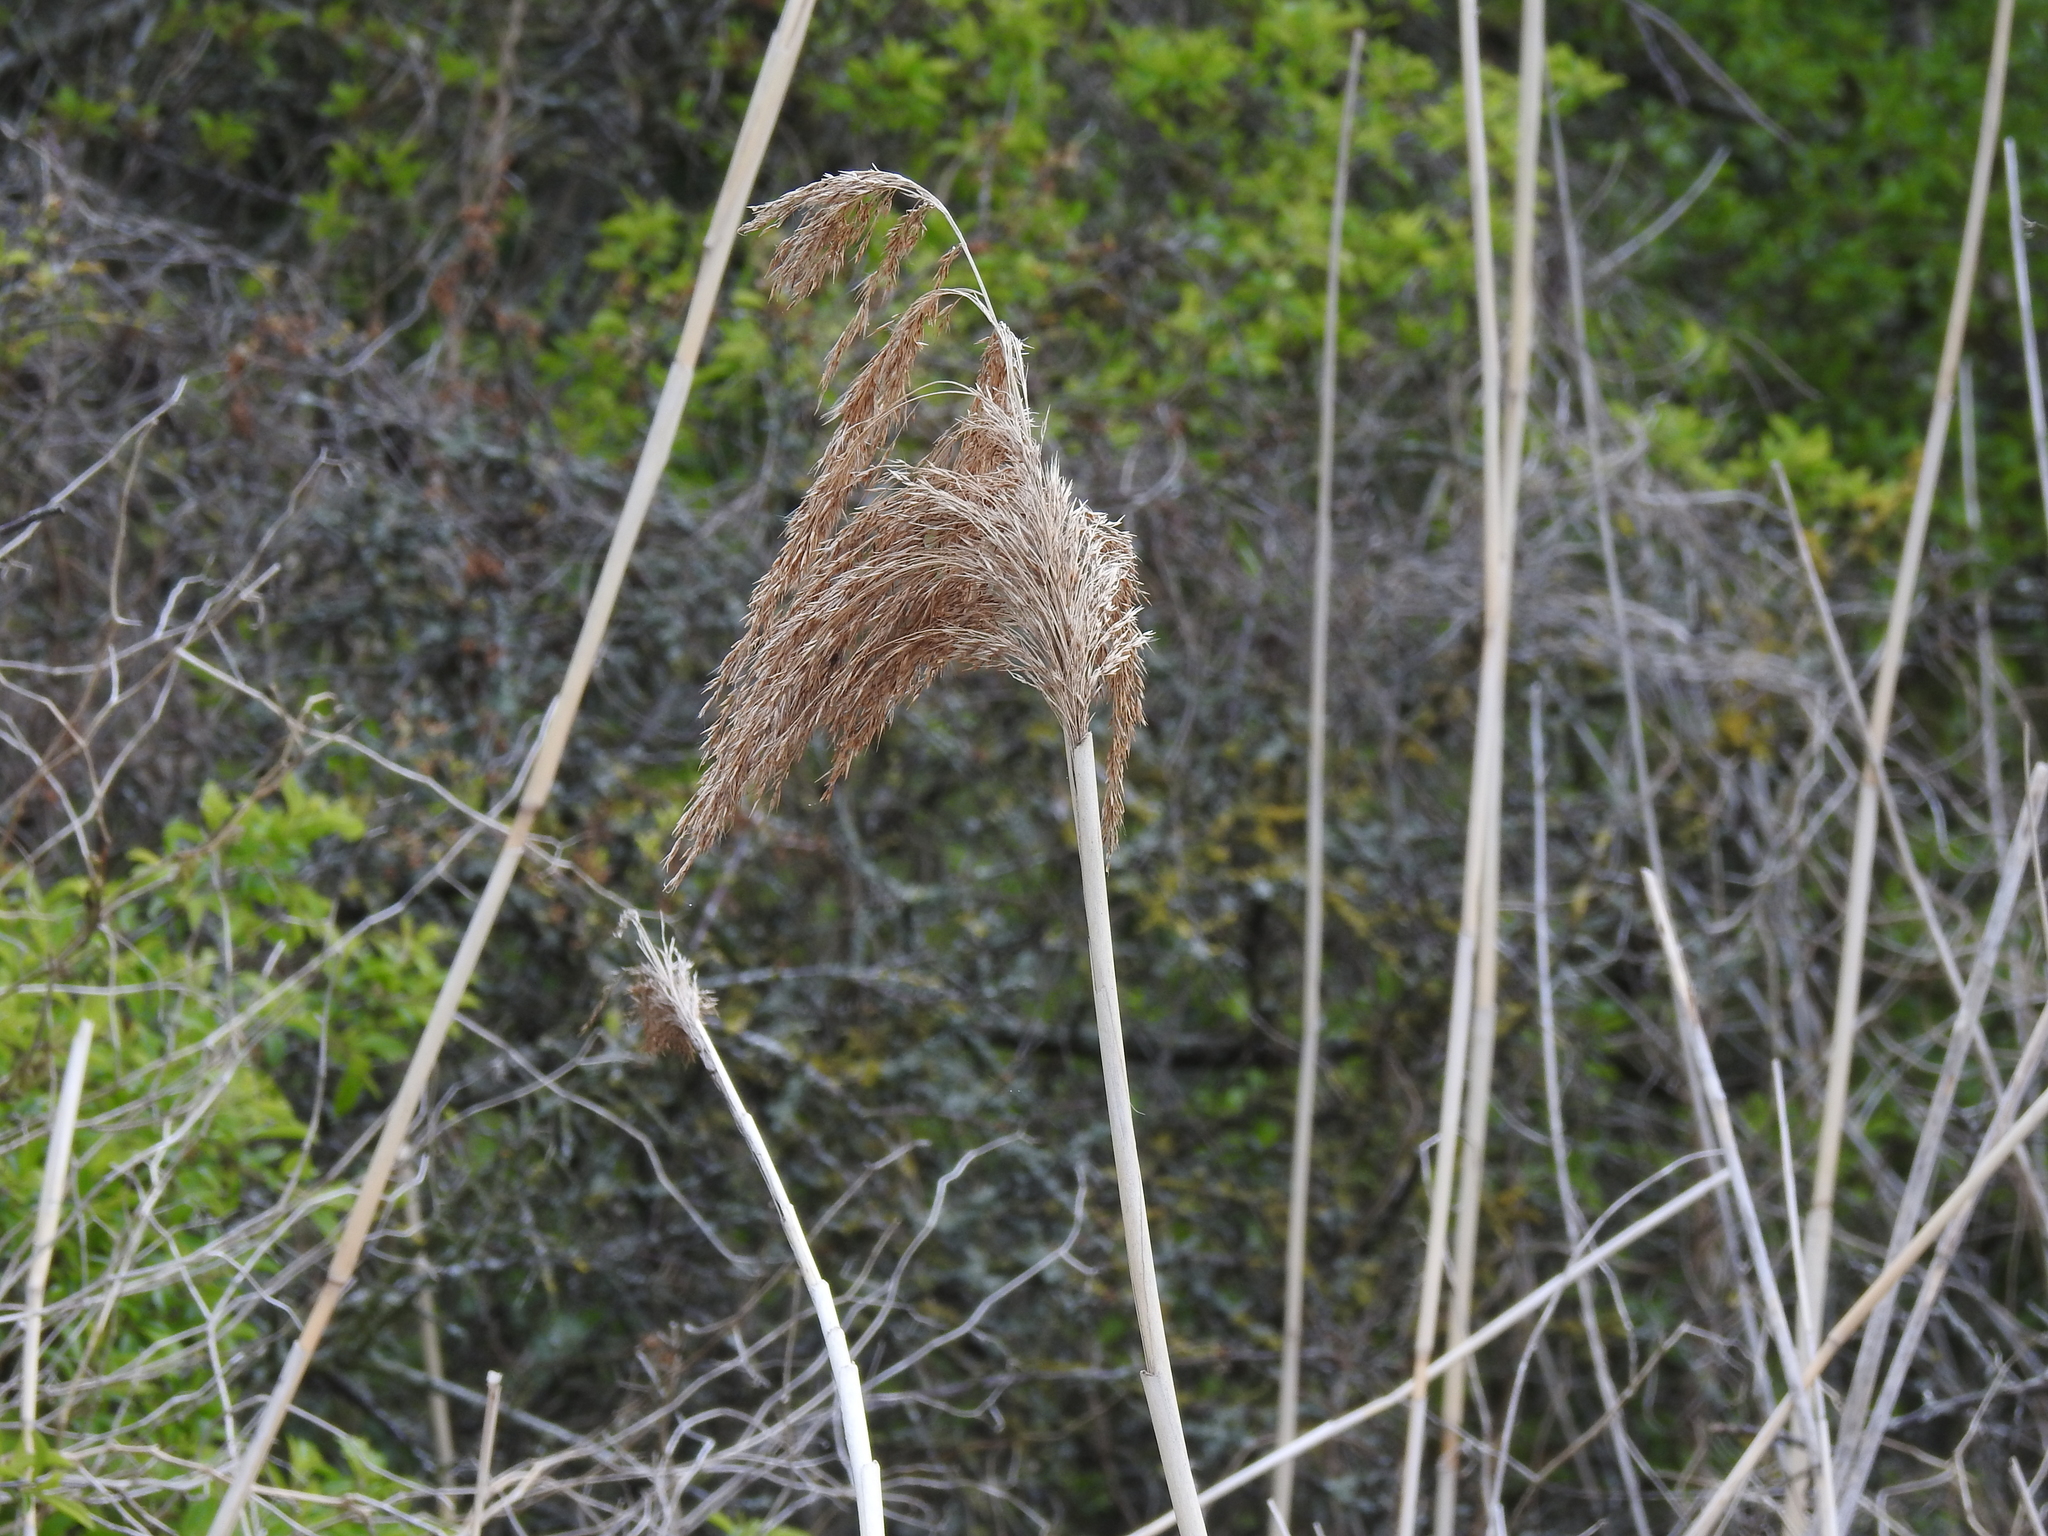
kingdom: Plantae
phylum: Tracheophyta
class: Liliopsida
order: Poales
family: Poaceae
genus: Phragmites
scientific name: Phragmites australis
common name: Common reed
